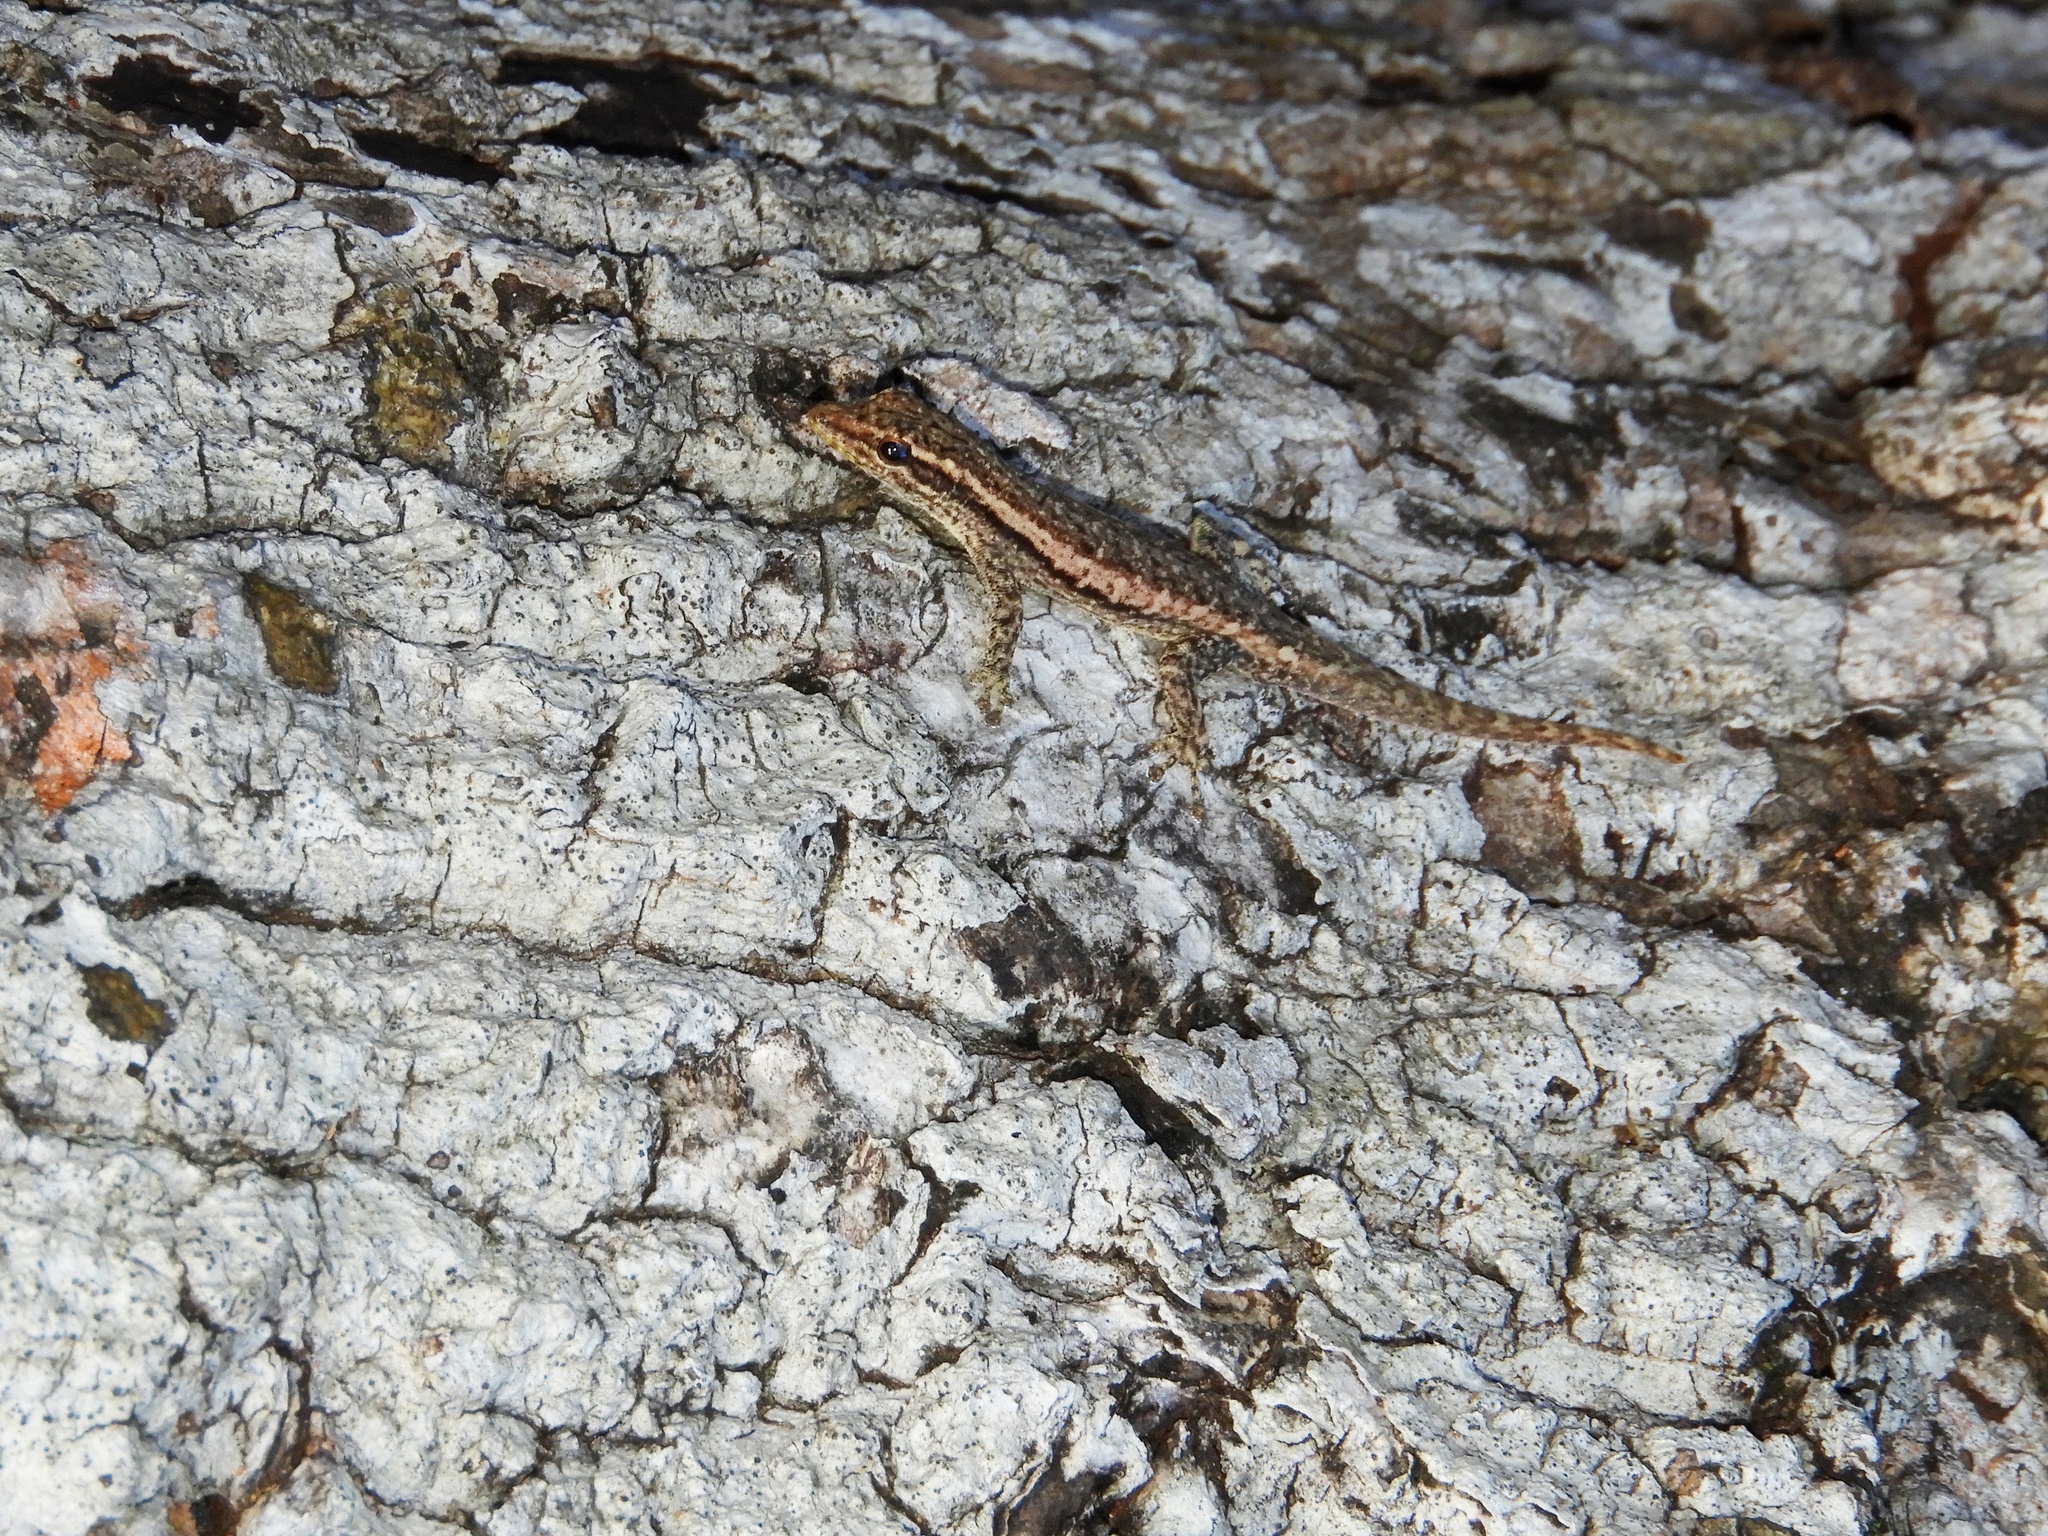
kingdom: Animalia
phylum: Chordata
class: Squamata
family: Gekkonidae
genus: Lygodactylus
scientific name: Lygodactylus capensis
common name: Cape dwarf gecko
